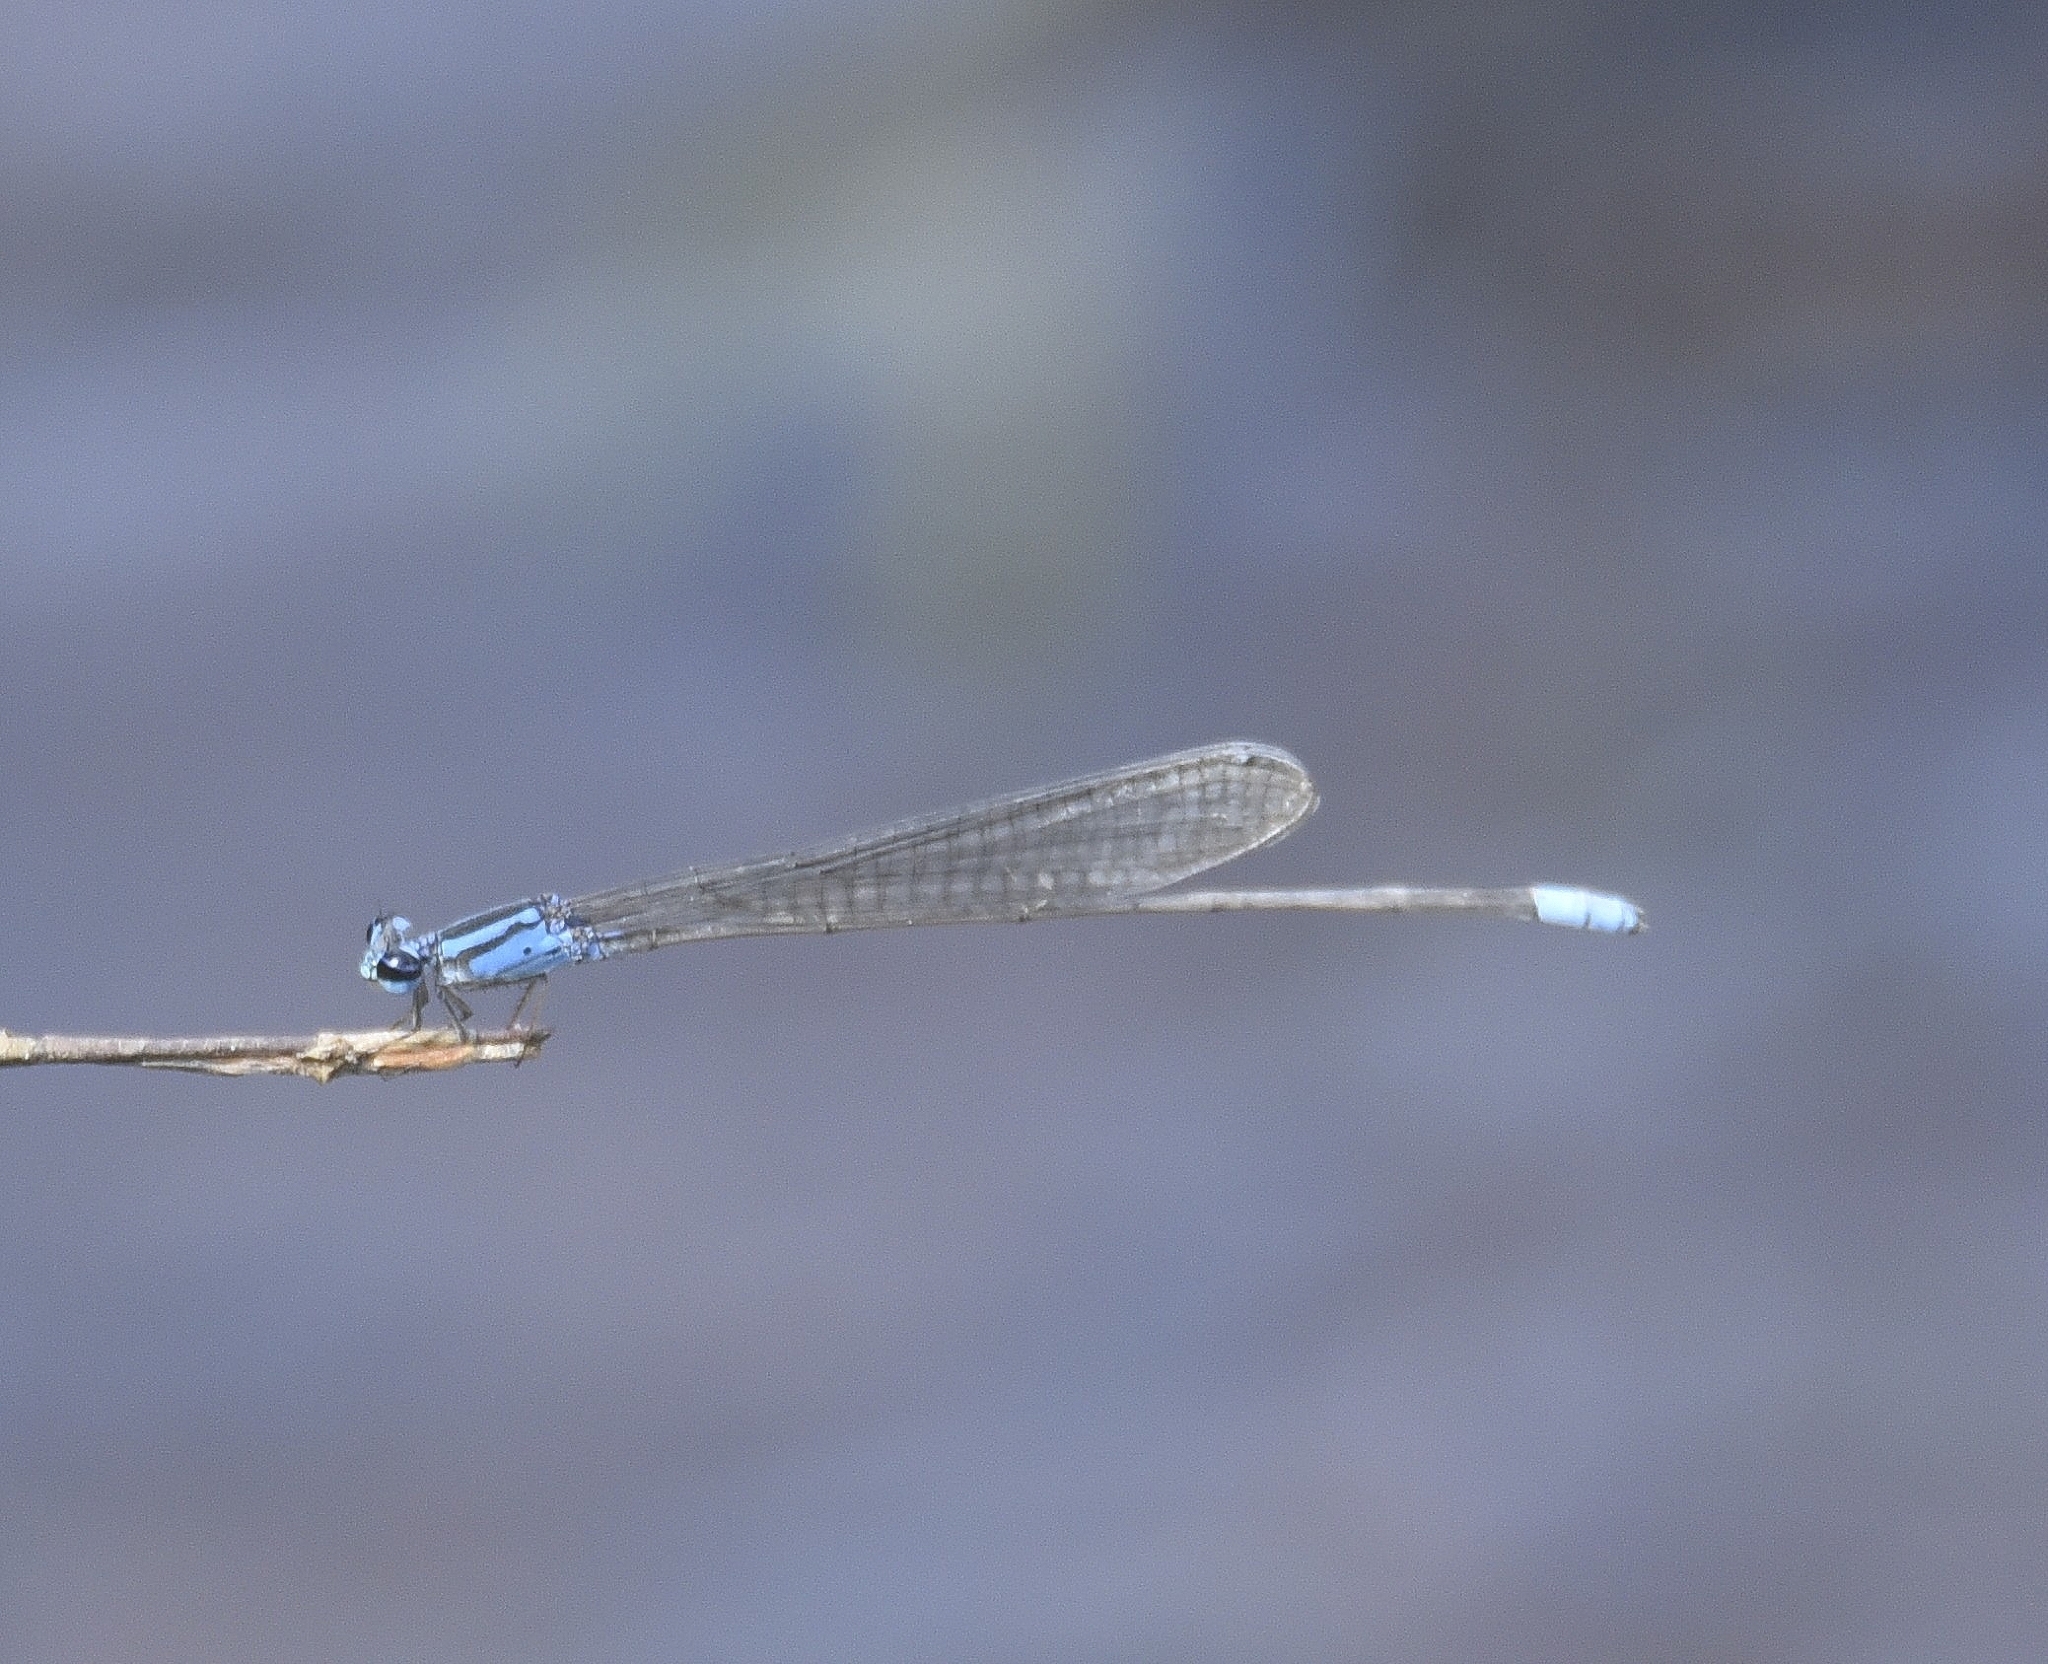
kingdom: Animalia
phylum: Arthropoda
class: Insecta
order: Odonata
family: Coenagrionidae
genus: Archibasis
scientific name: Archibasis oscillans
